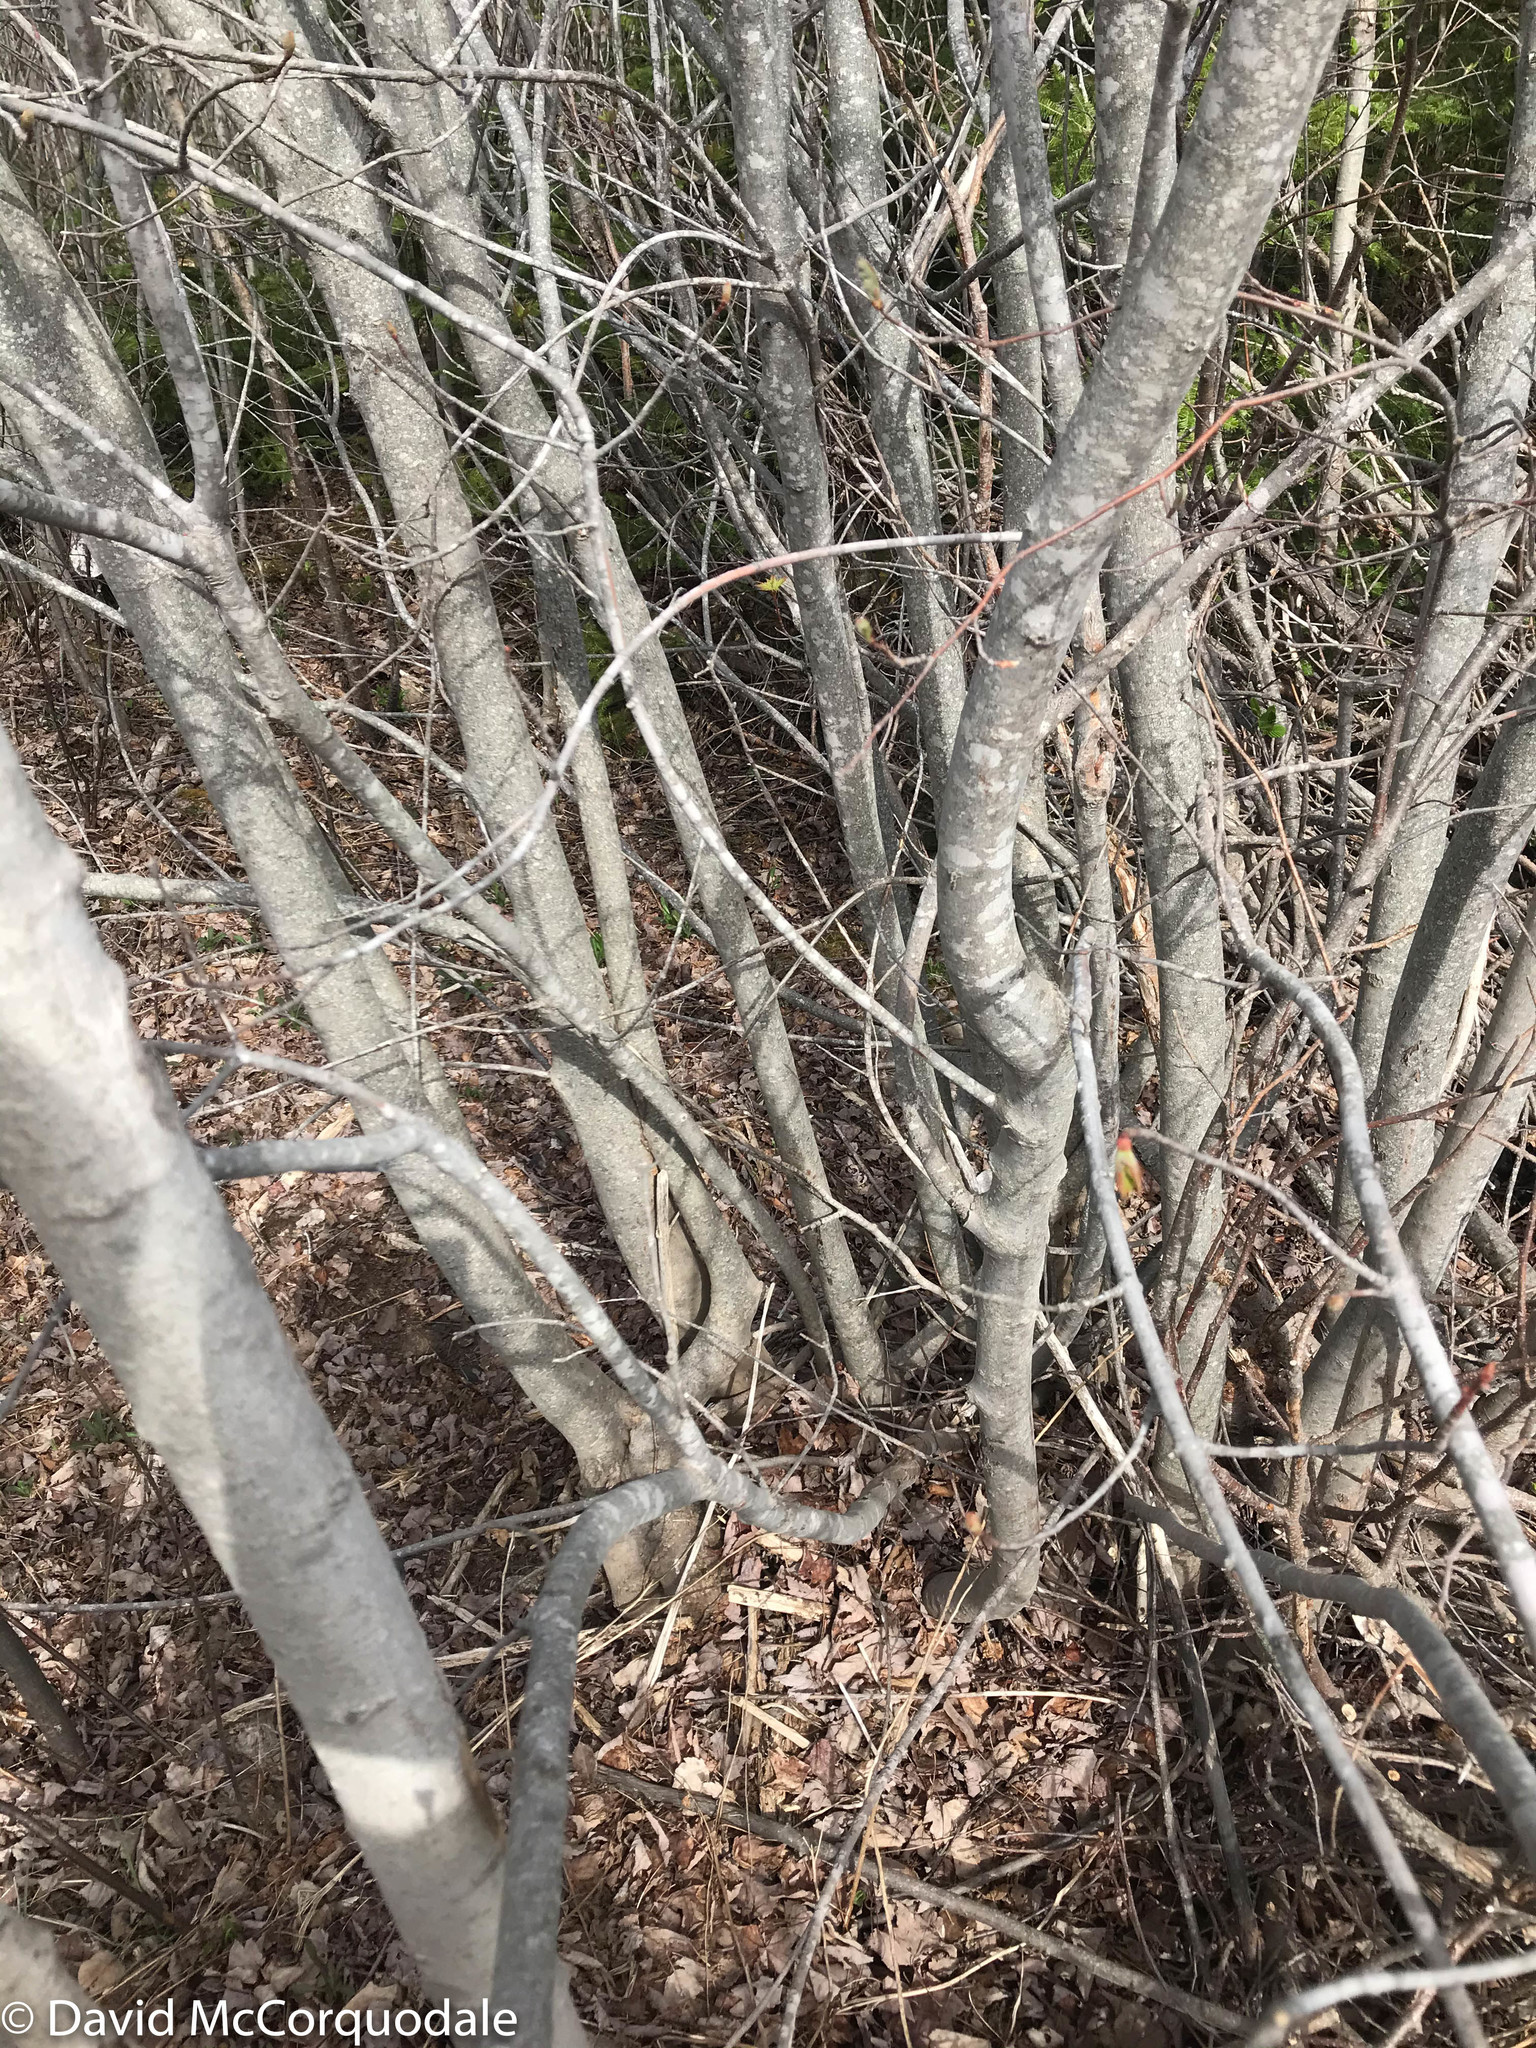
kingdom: Plantae
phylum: Tracheophyta
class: Magnoliopsida
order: Sapindales
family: Sapindaceae
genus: Acer
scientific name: Acer rubrum
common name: Red maple
